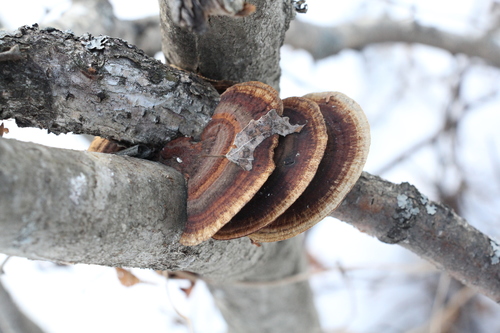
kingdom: Fungi
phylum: Basidiomycota
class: Agaricomycetes
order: Polyporales
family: Polyporaceae
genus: Daedaleopsis
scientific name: Daedaleopsis
